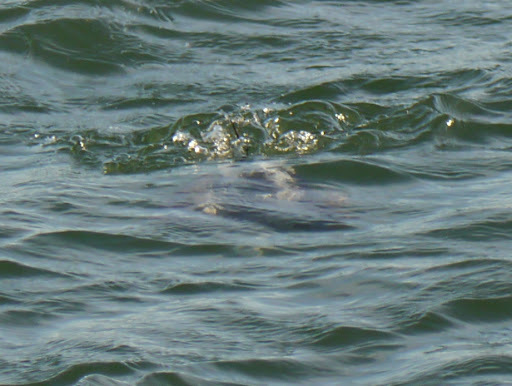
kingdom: Animalia
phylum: Chordata
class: Aves
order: Anseriformes
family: Anatidae
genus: Clangula
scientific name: Clangula hyemalis
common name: Long-tailed duck
